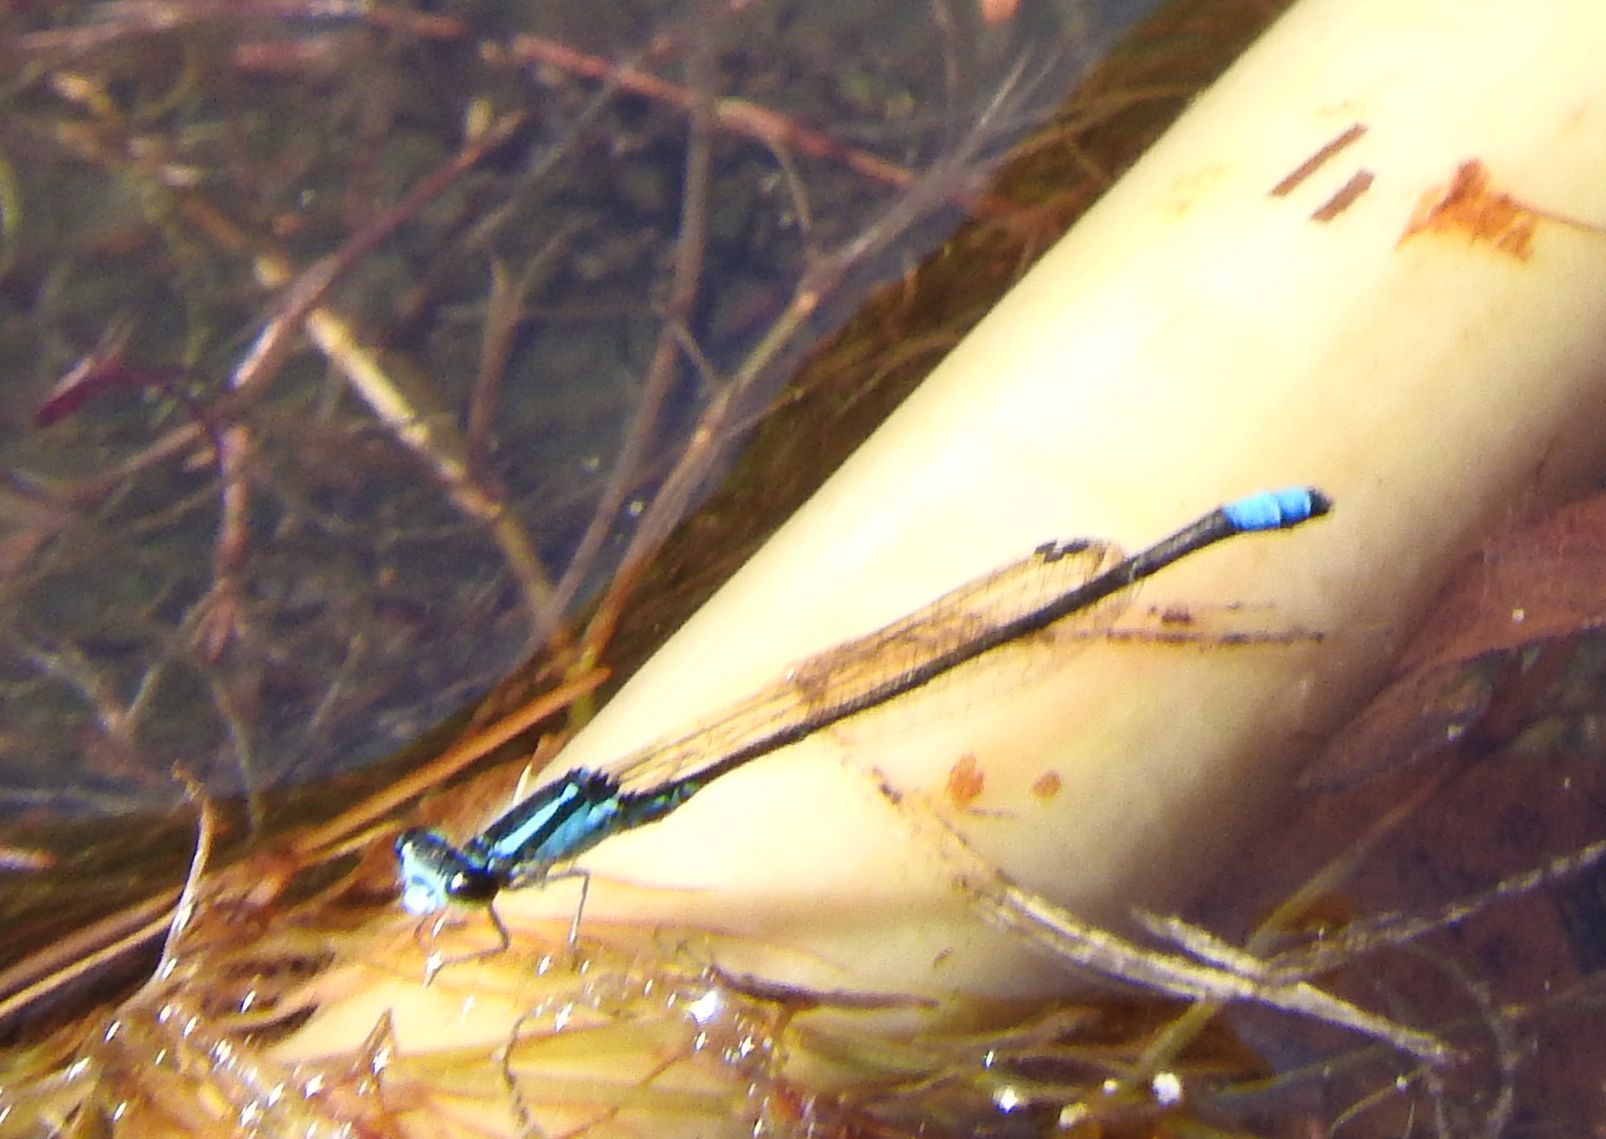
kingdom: Animalia
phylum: Arthropoda
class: Insecta
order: Odonata
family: Coenagrionidae
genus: Enallagma
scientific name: Enallagma geminatum
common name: Skimming bluet
